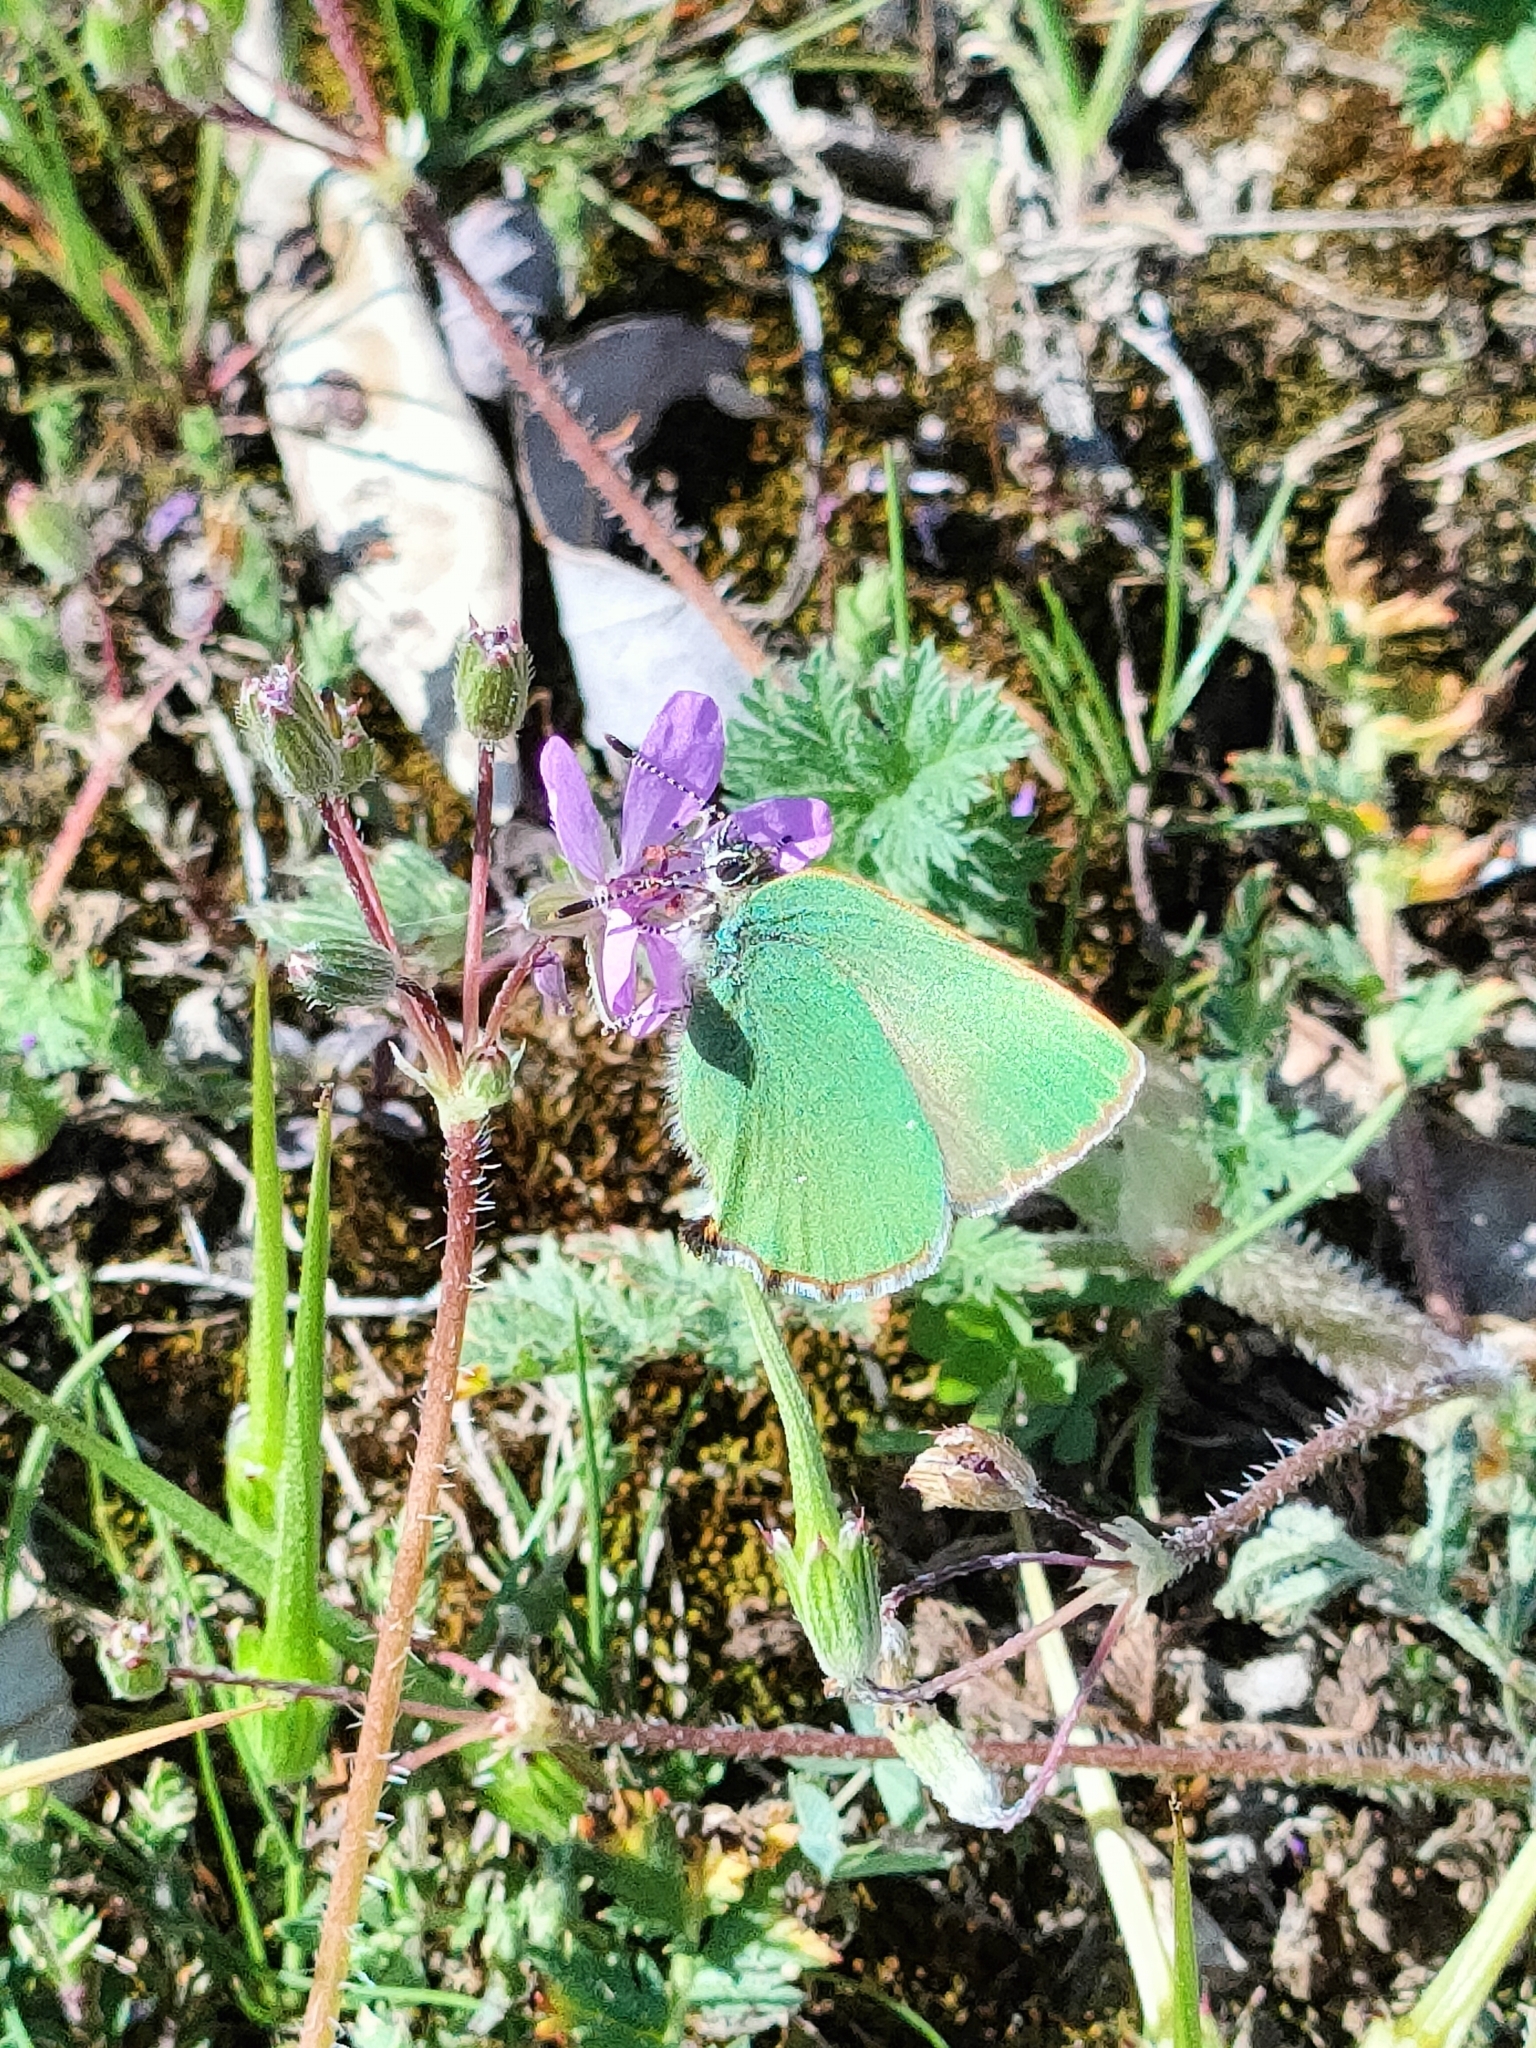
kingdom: Animalia
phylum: Arthropoda
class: Insecta
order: Lepidoptera
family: Lycaenidae
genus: Callophrys
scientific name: Callophrys rubi
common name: Green hairstreak
